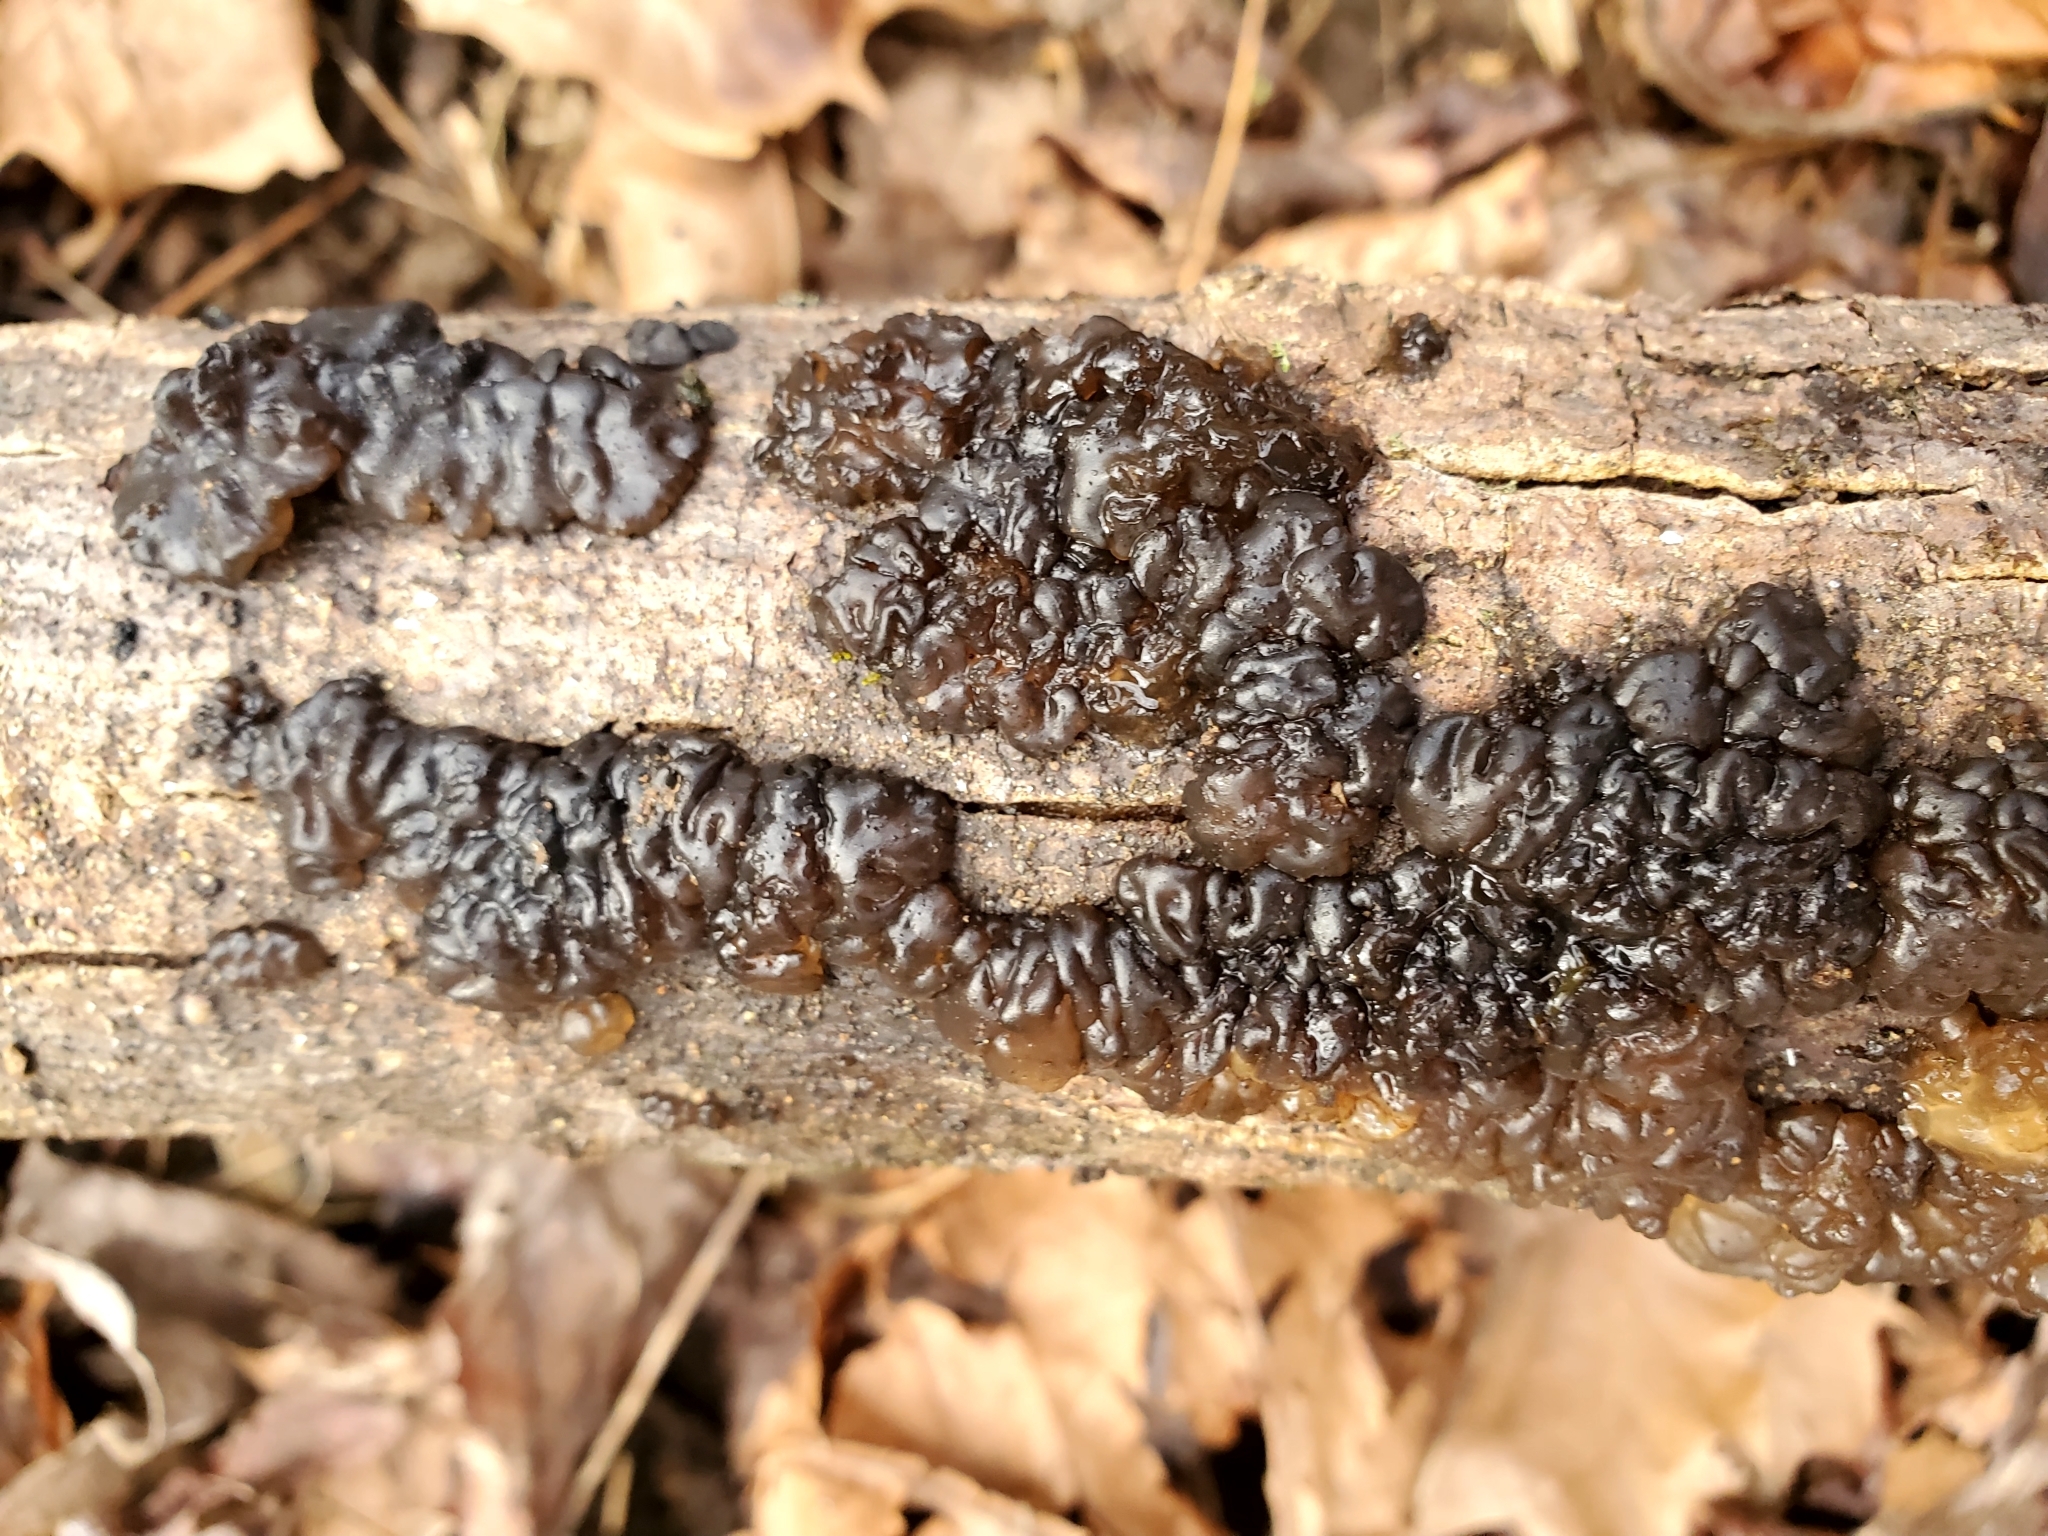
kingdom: Fungi
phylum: Basidiomycota
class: Agaricomycetes
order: Auriculariales
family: Auriculariaceae
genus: Exidia
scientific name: Exidia glandulosa
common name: Witches' butter
